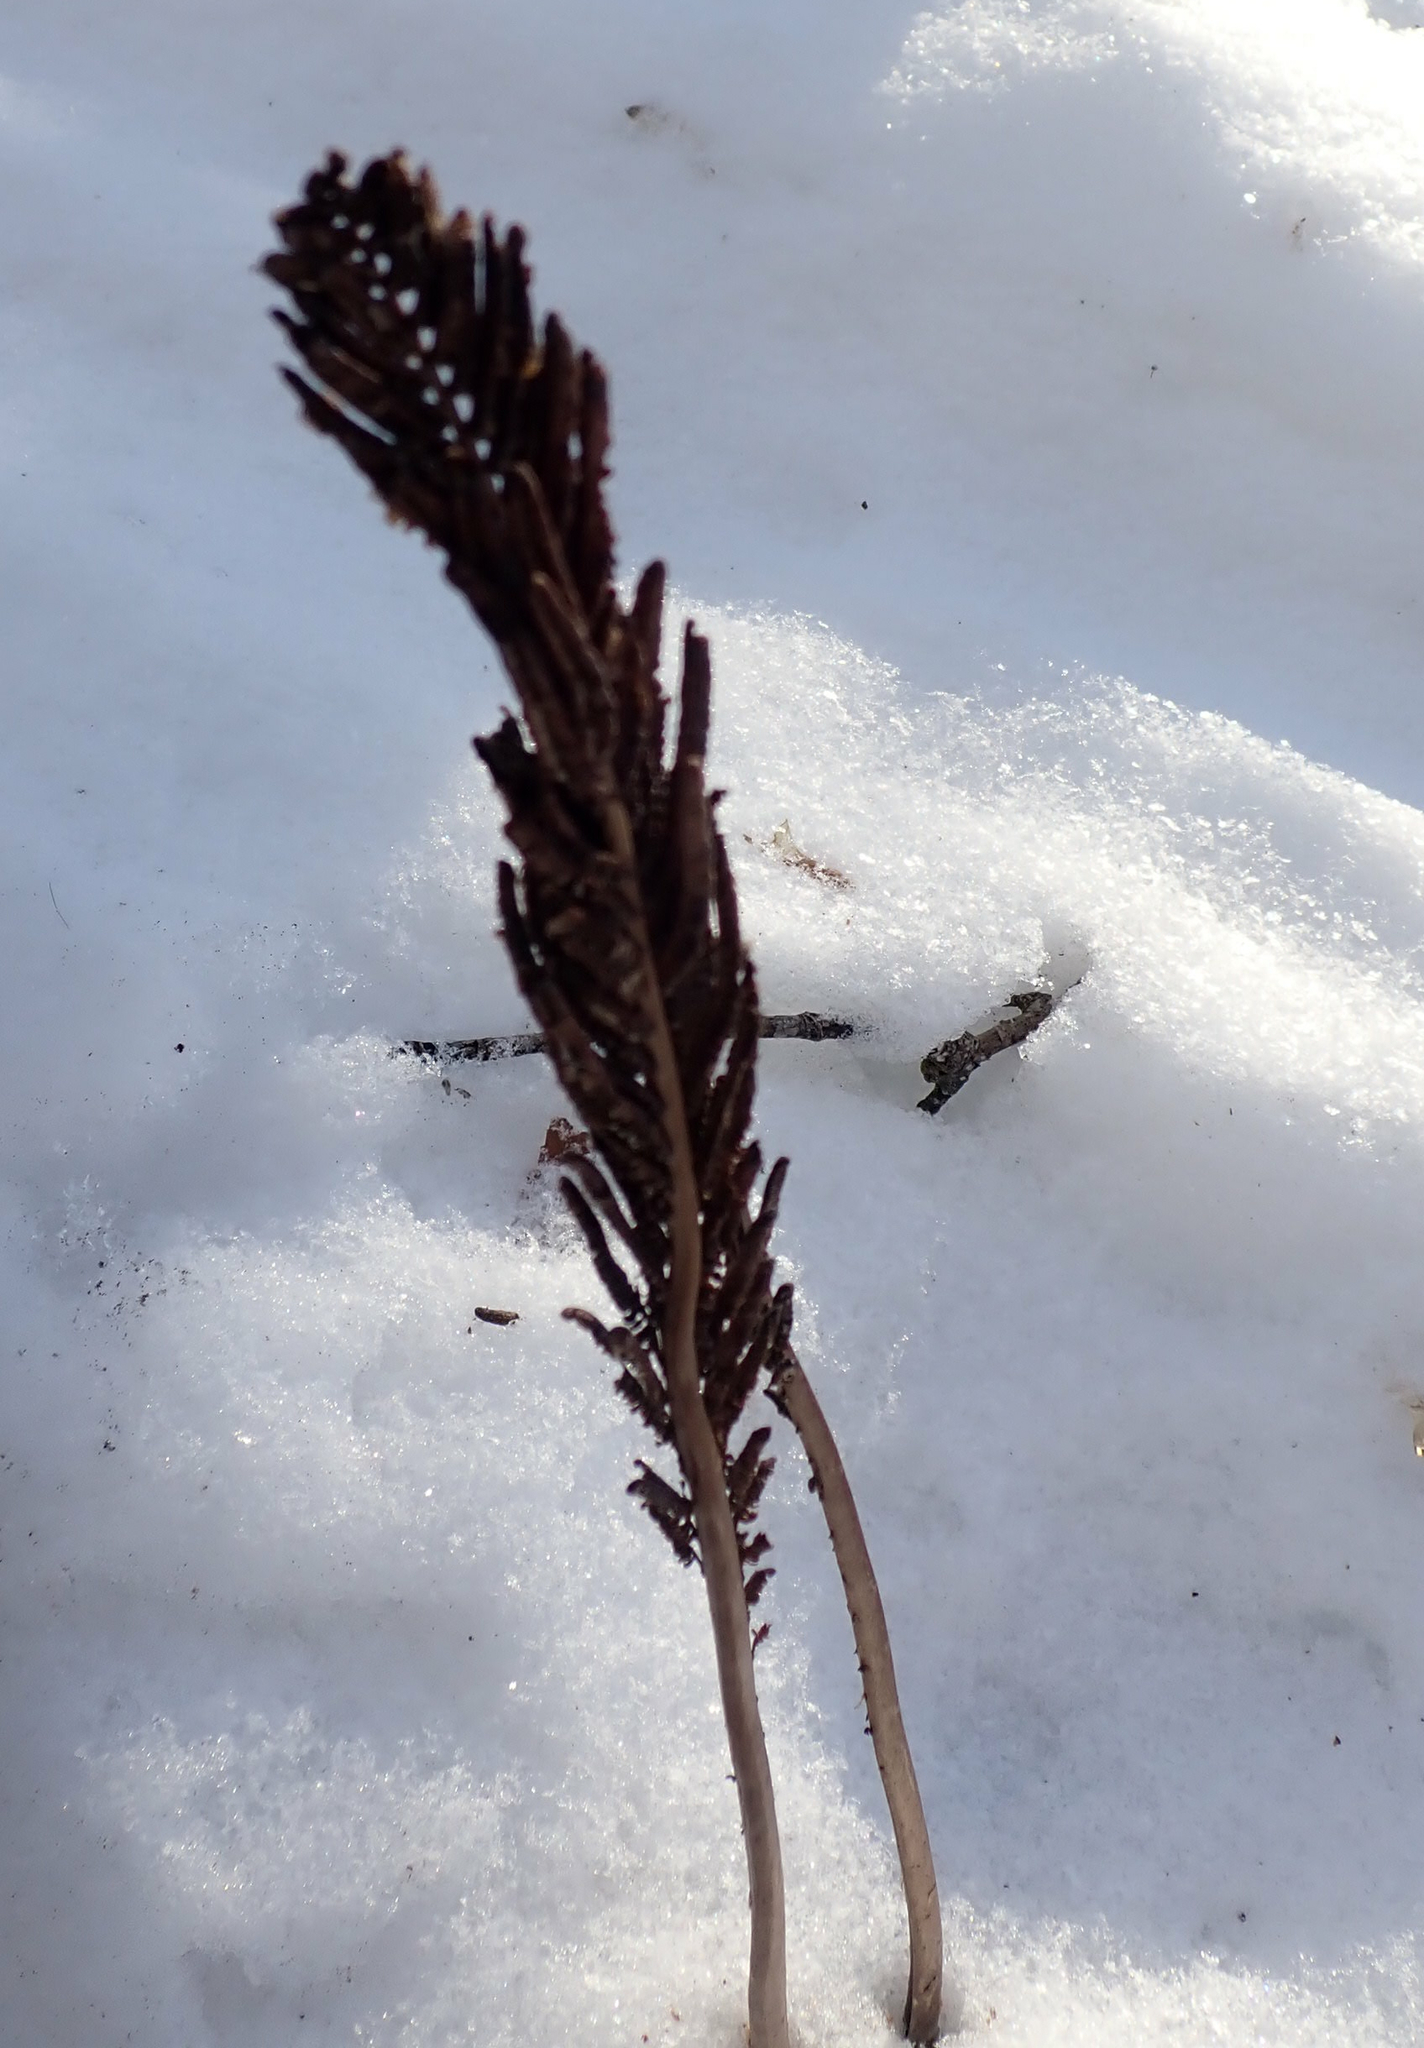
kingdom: Plantae
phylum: Tracheophyta
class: Polypodiopsida
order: Polypodiales
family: Onocleaceae
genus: Matteuccia
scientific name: Matteuccia struthiopteris
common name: Ostrich fern
